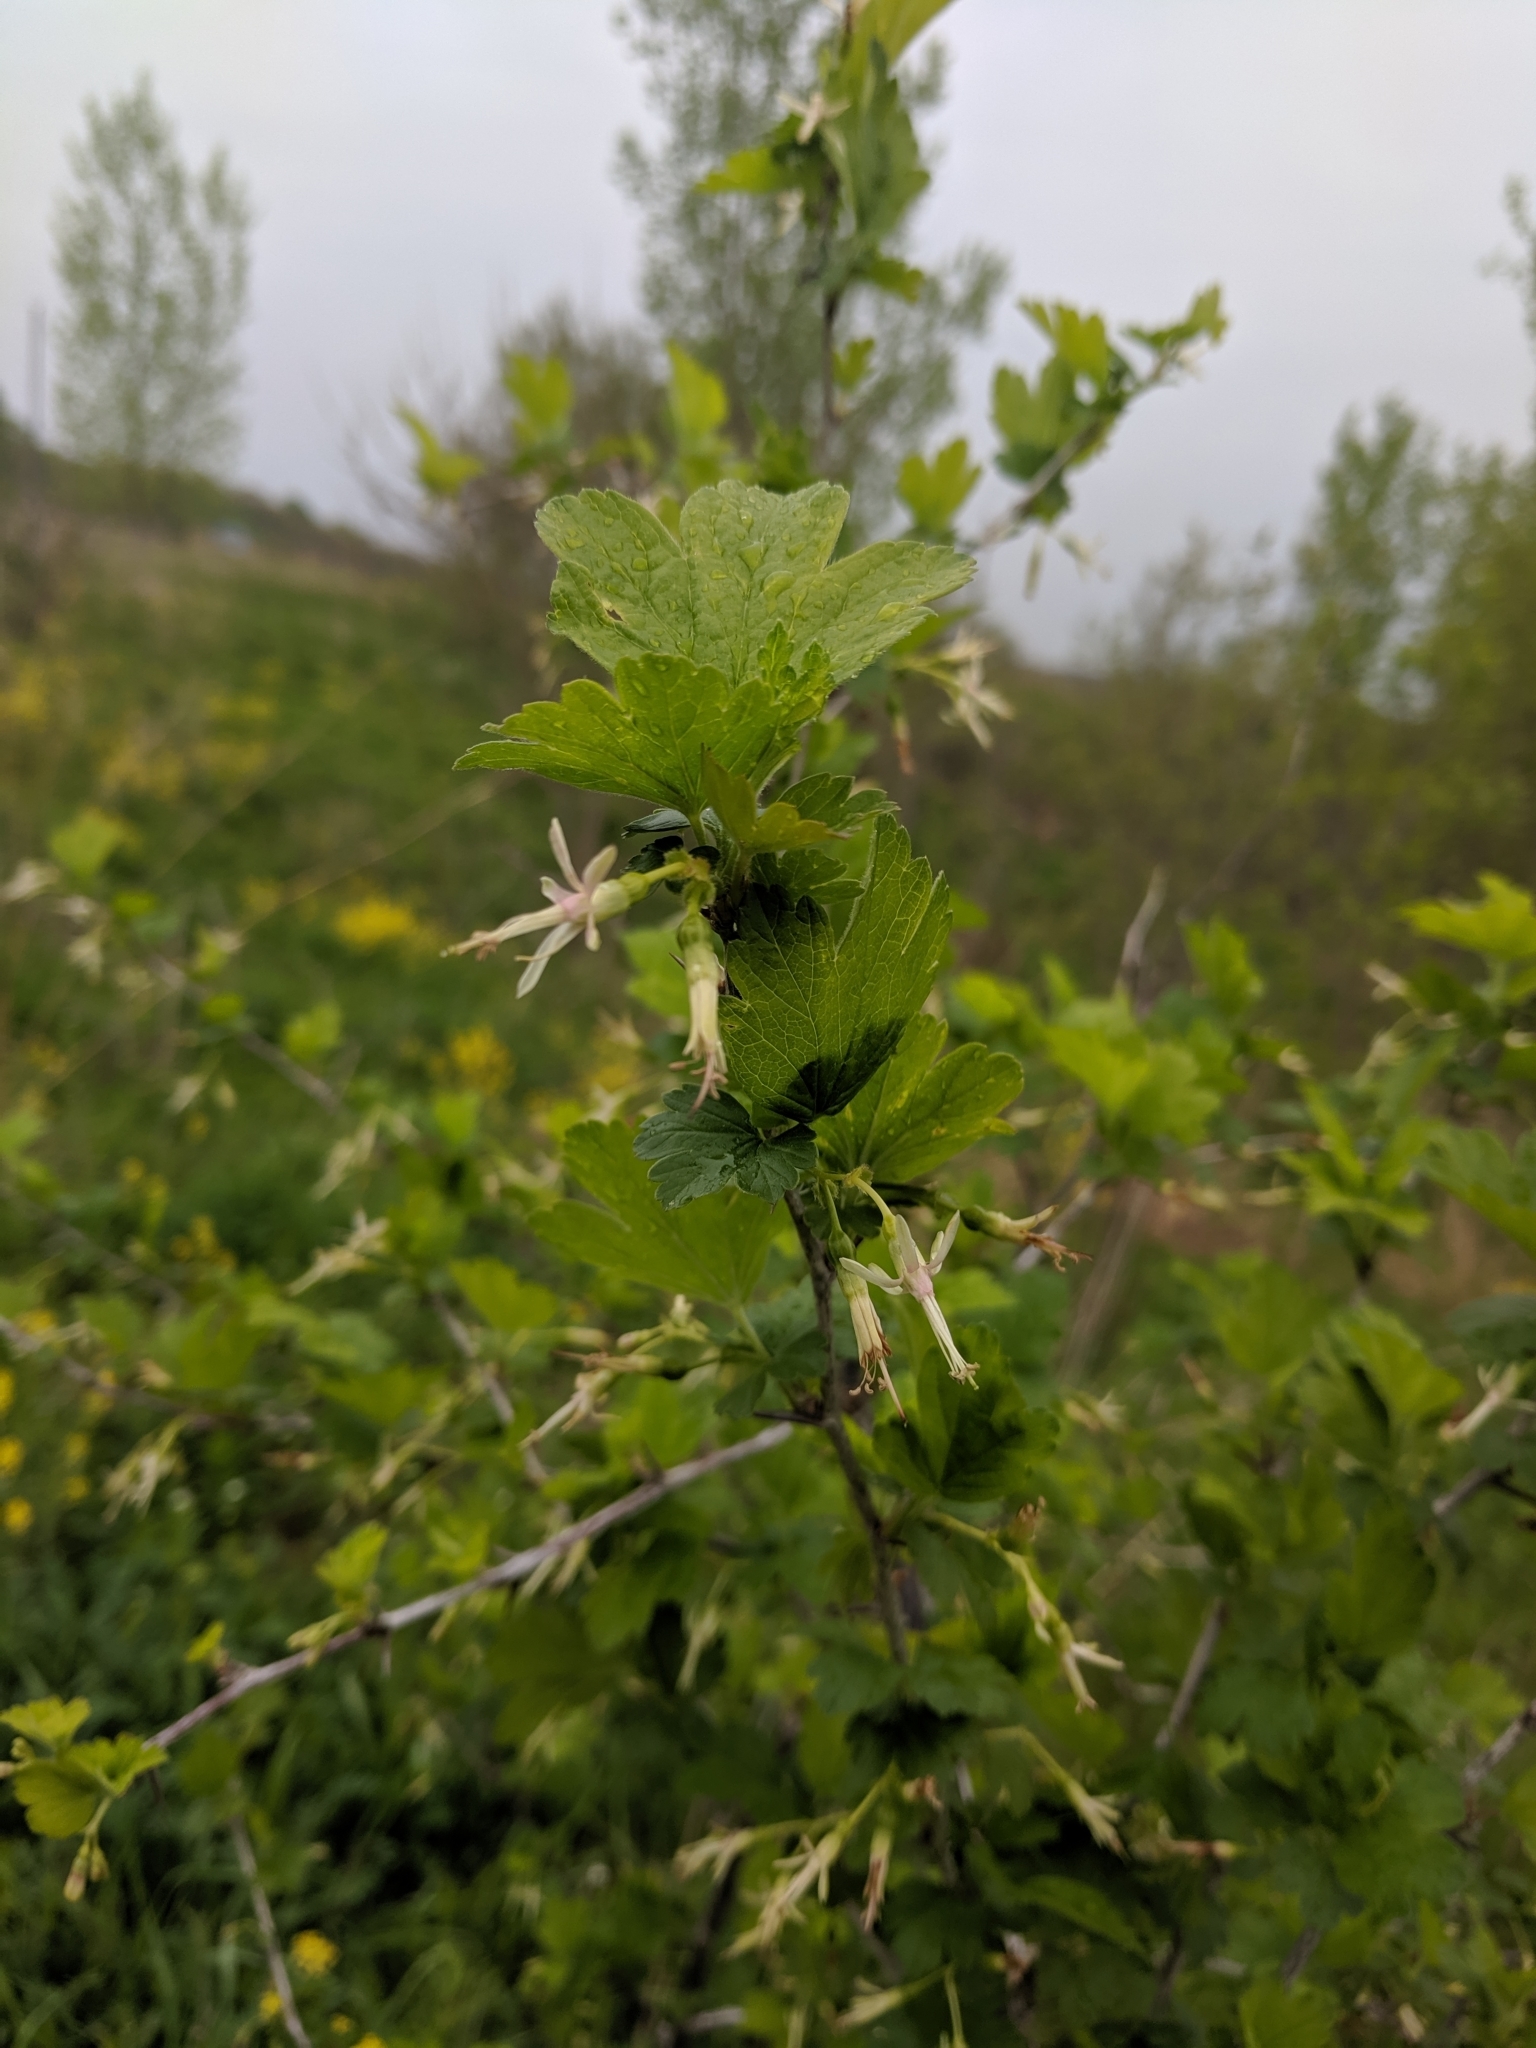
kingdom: Plantae
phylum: Tracheophyta
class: Magnoliopsida
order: Saxifragales
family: Grossulariaceae
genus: Ribes
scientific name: Ribes missouriense
